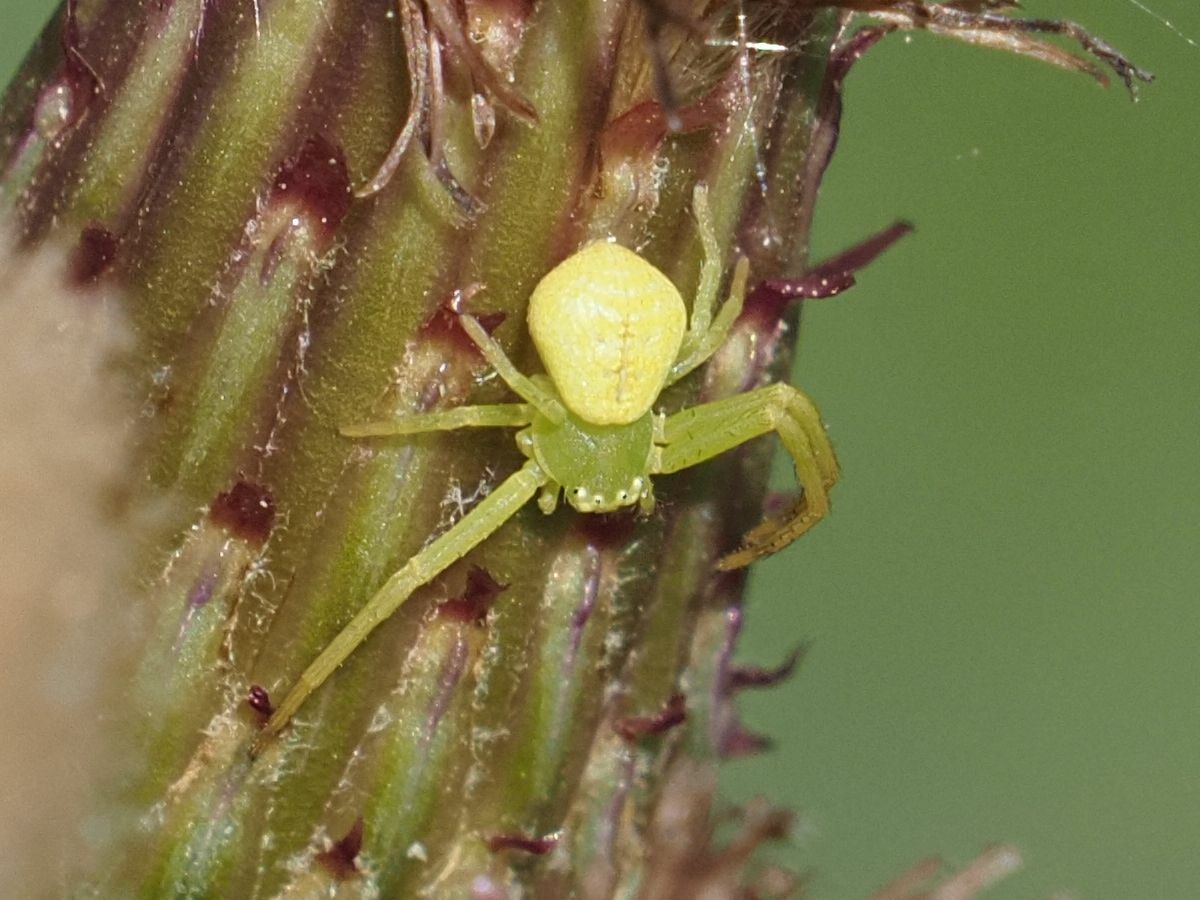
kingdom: Animalia
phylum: Arthropoda
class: Arachnida
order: Araneae
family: Thomisidae
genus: Ebrechtella
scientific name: Ebrechtella tricuspidata
